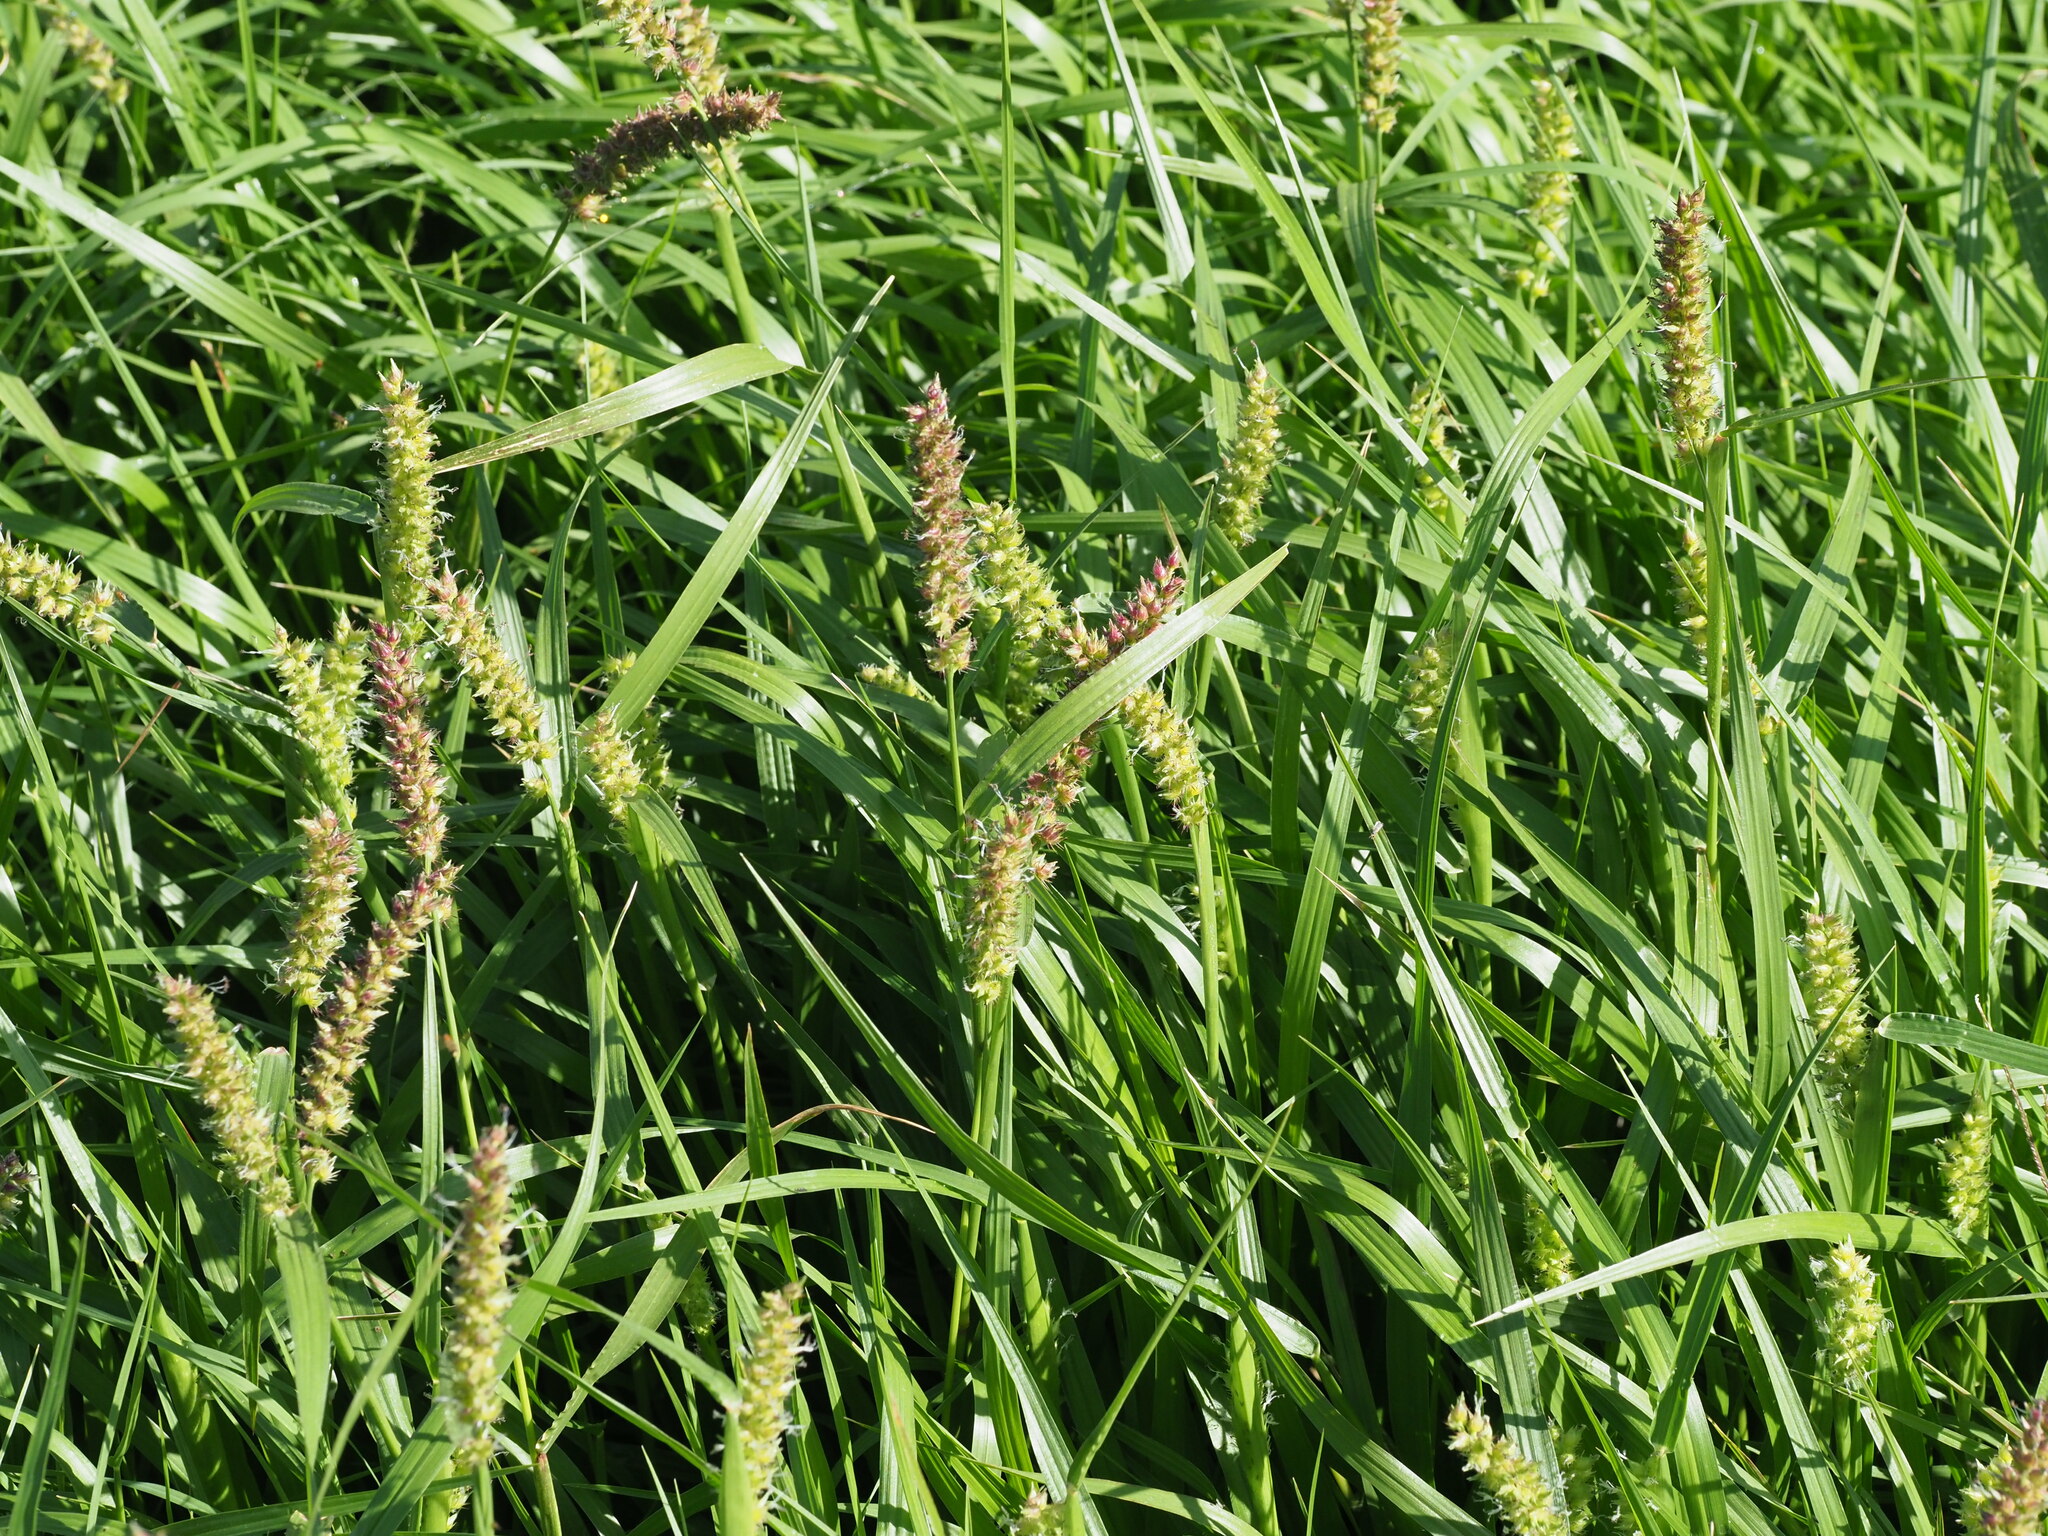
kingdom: Plantae
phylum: Tracheophyta
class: Liliopsida
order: Poales
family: Poaceae
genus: Cenchrus
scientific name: Cenchrus echinatus
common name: Southern sandbur
